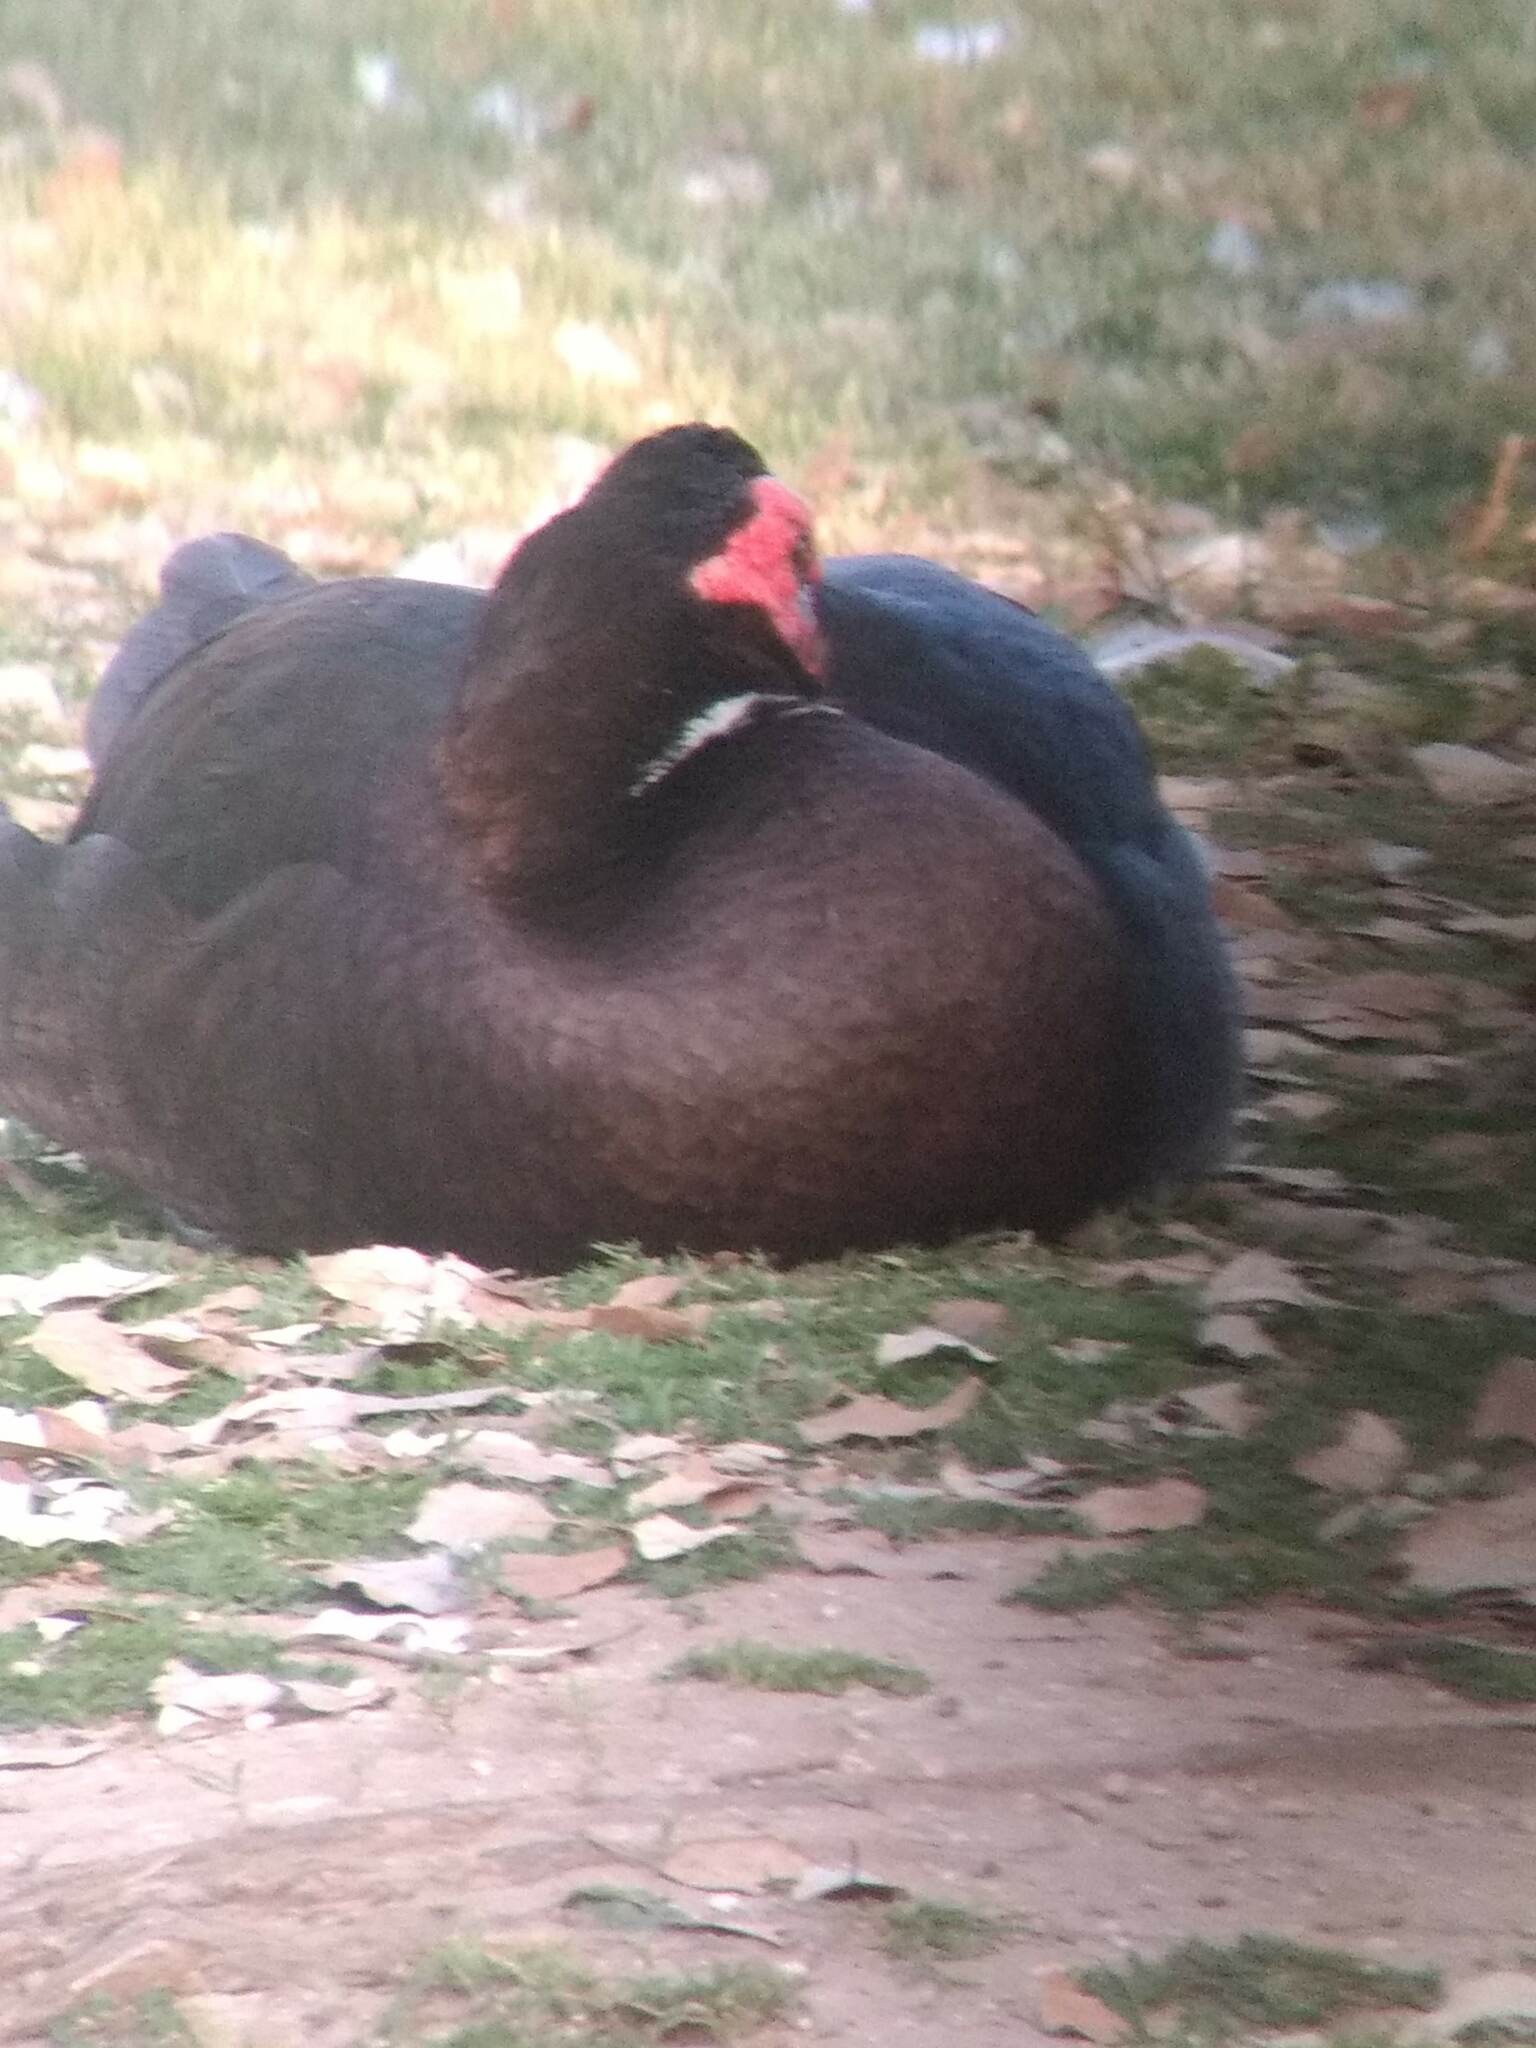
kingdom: Animalia
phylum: Chordata
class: Aves
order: Anseriformes
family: Anatidae
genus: Cairina
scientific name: Cairina moschata
